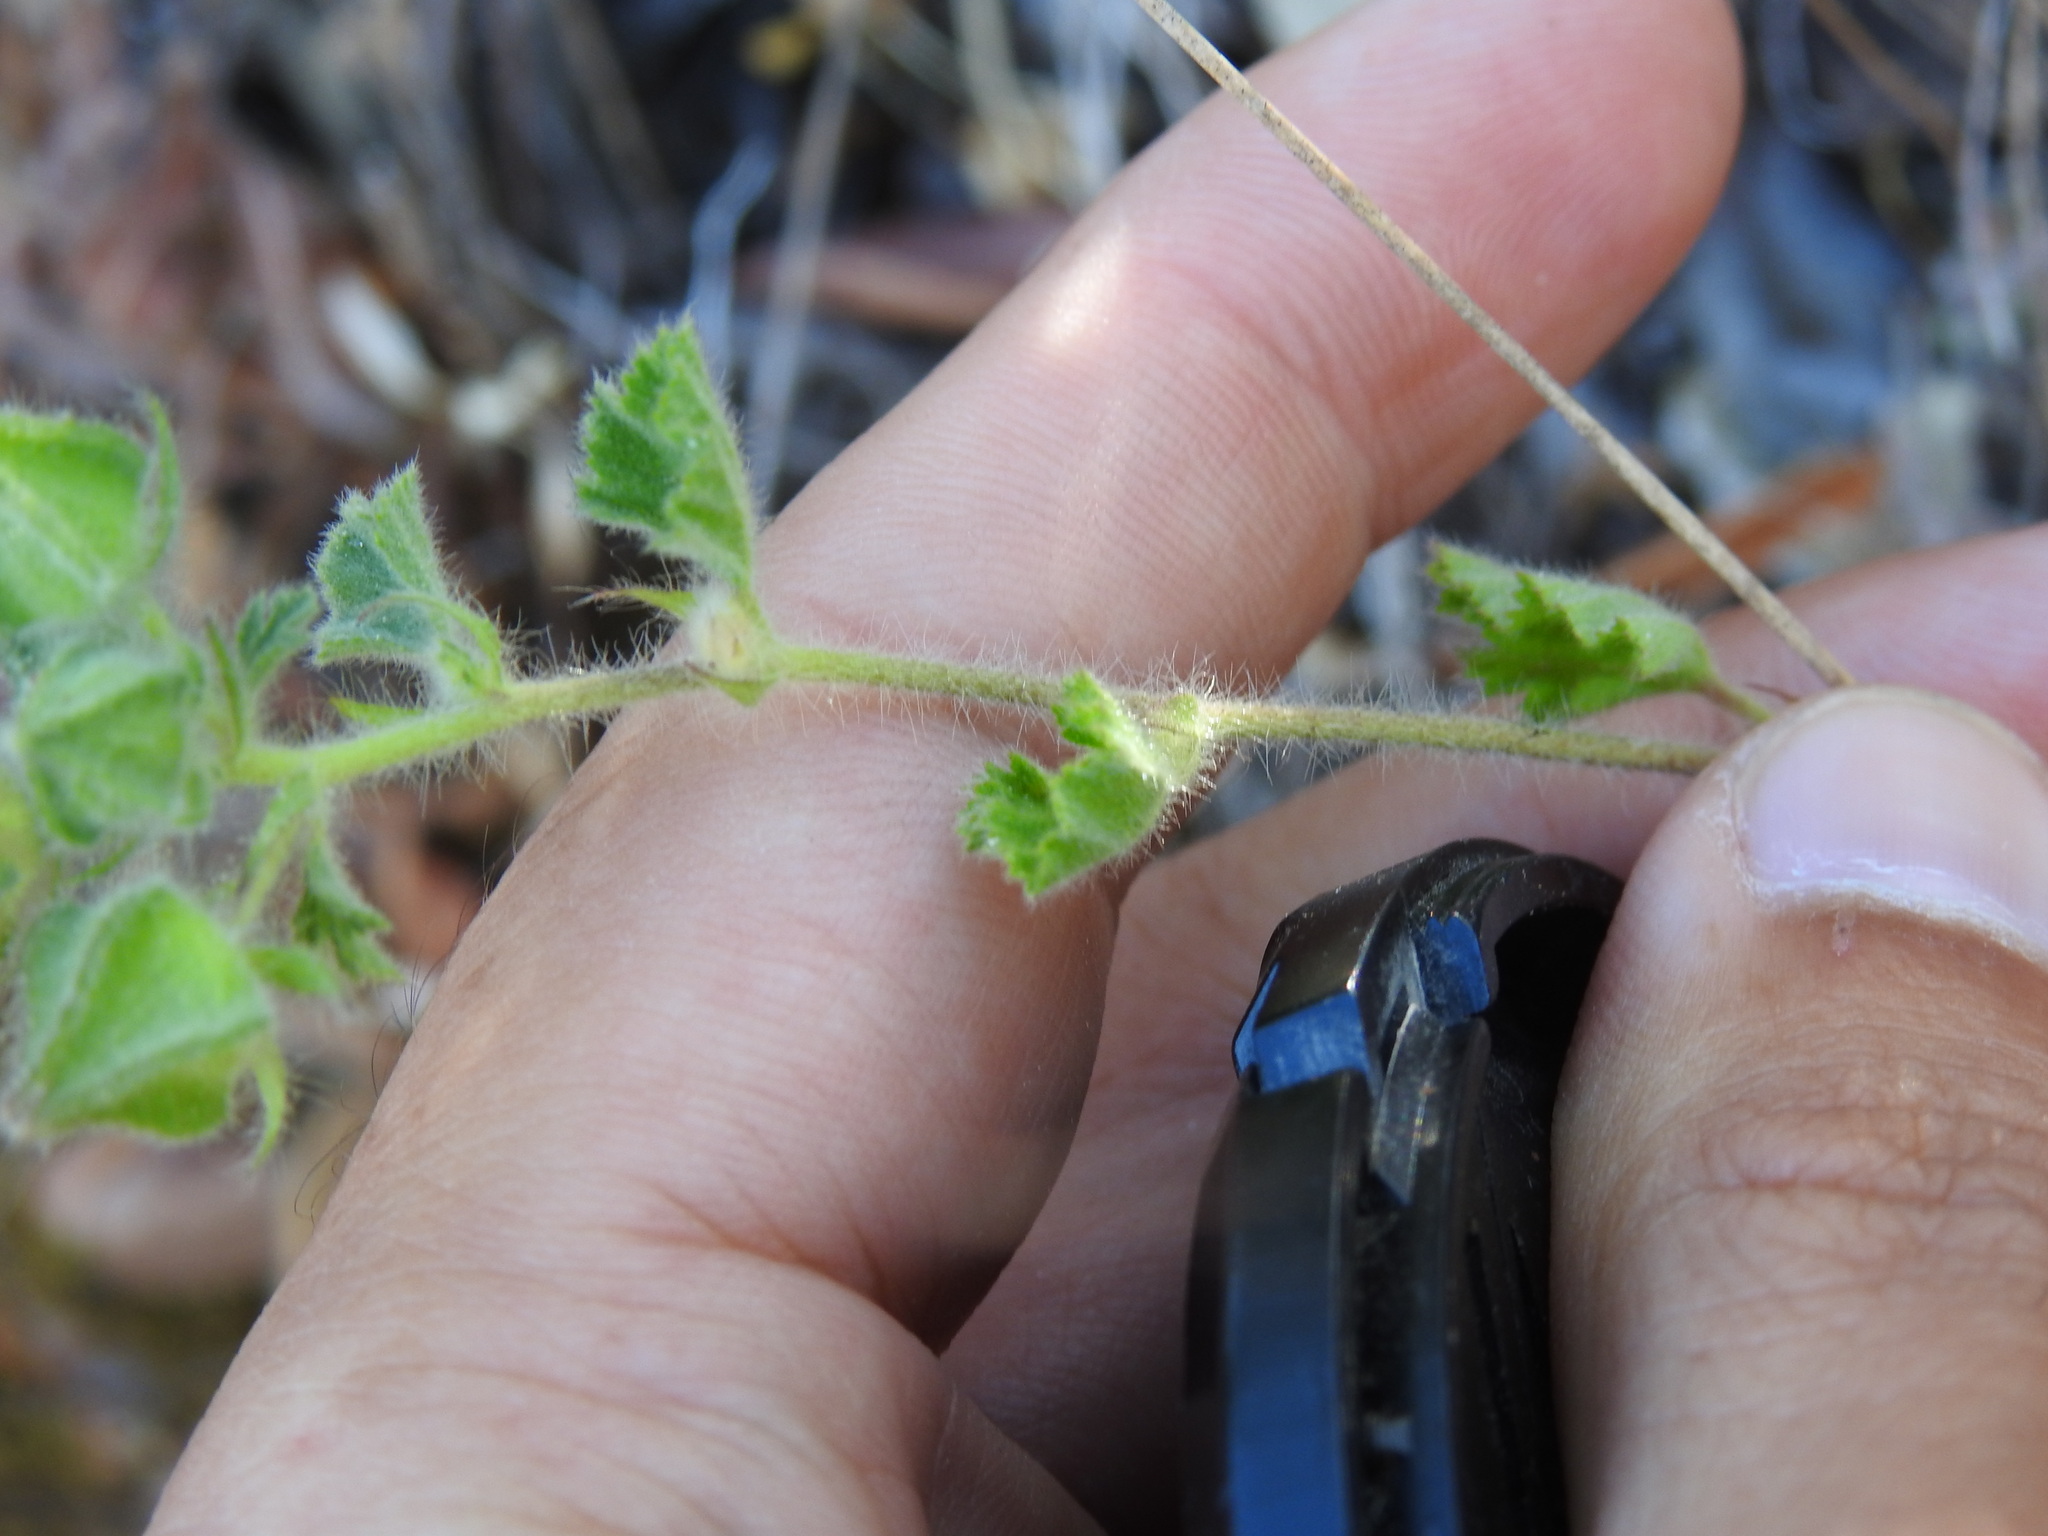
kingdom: Plantae
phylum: Tracheophyta
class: Magnoliopsida
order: Malvales
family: Malvaceae
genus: Malva
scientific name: Malva hispanica
